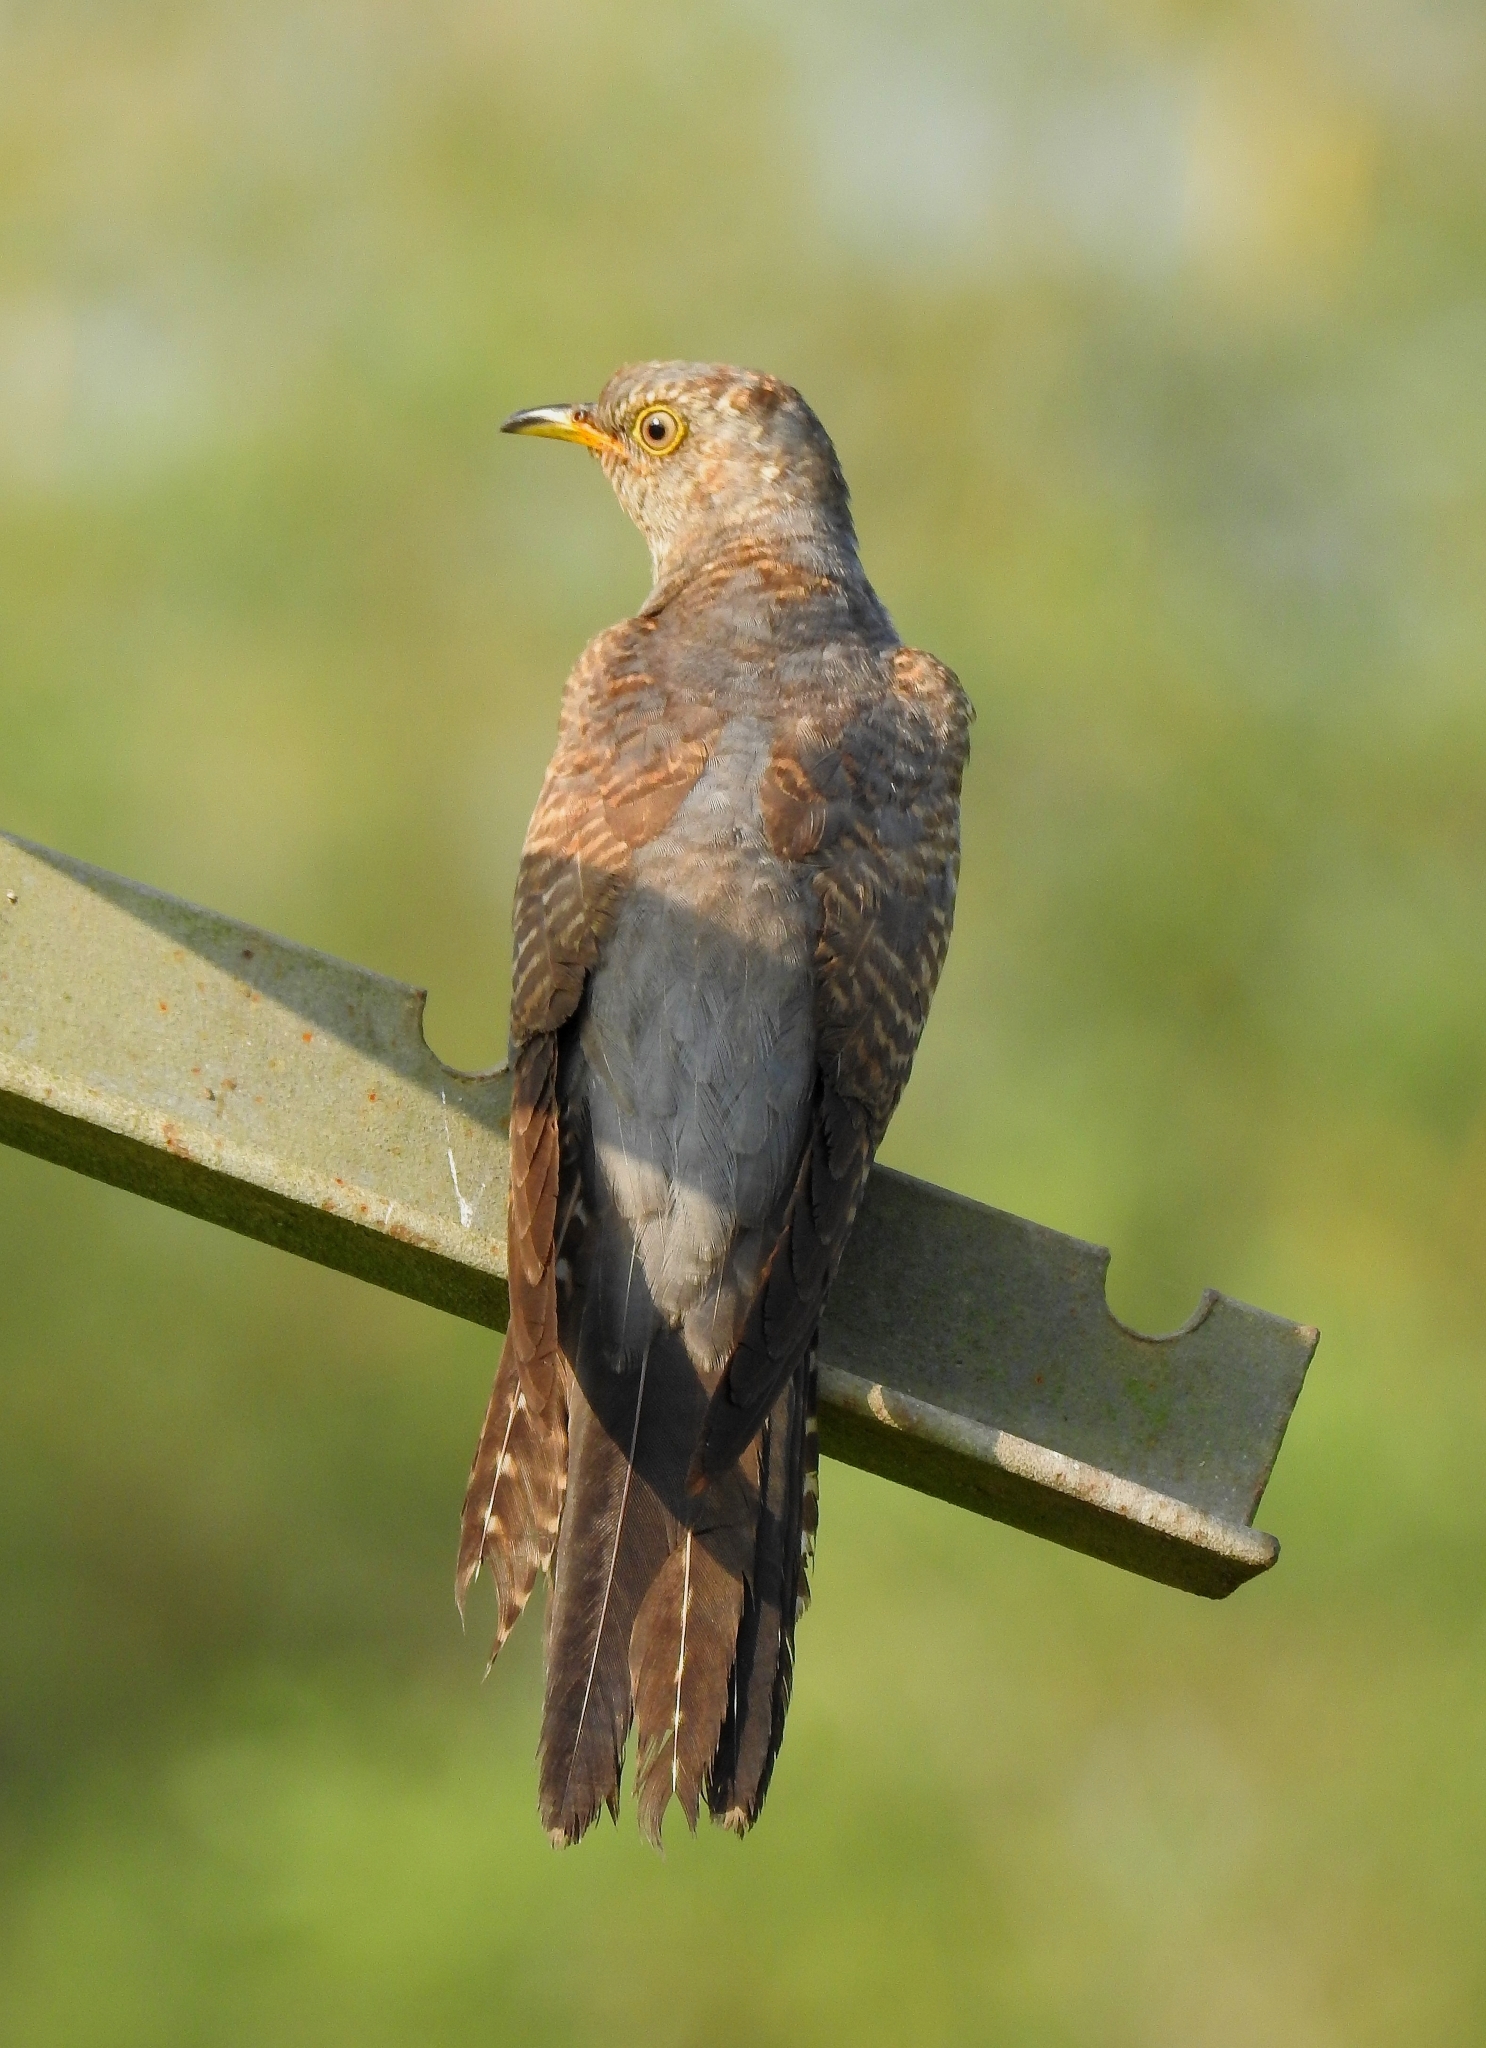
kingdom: Animalia
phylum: Chordata
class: Aves
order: Cuculiformes
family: Cuculidae
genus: Cuculus
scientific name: Cuculus canorus
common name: Common cuckoo
